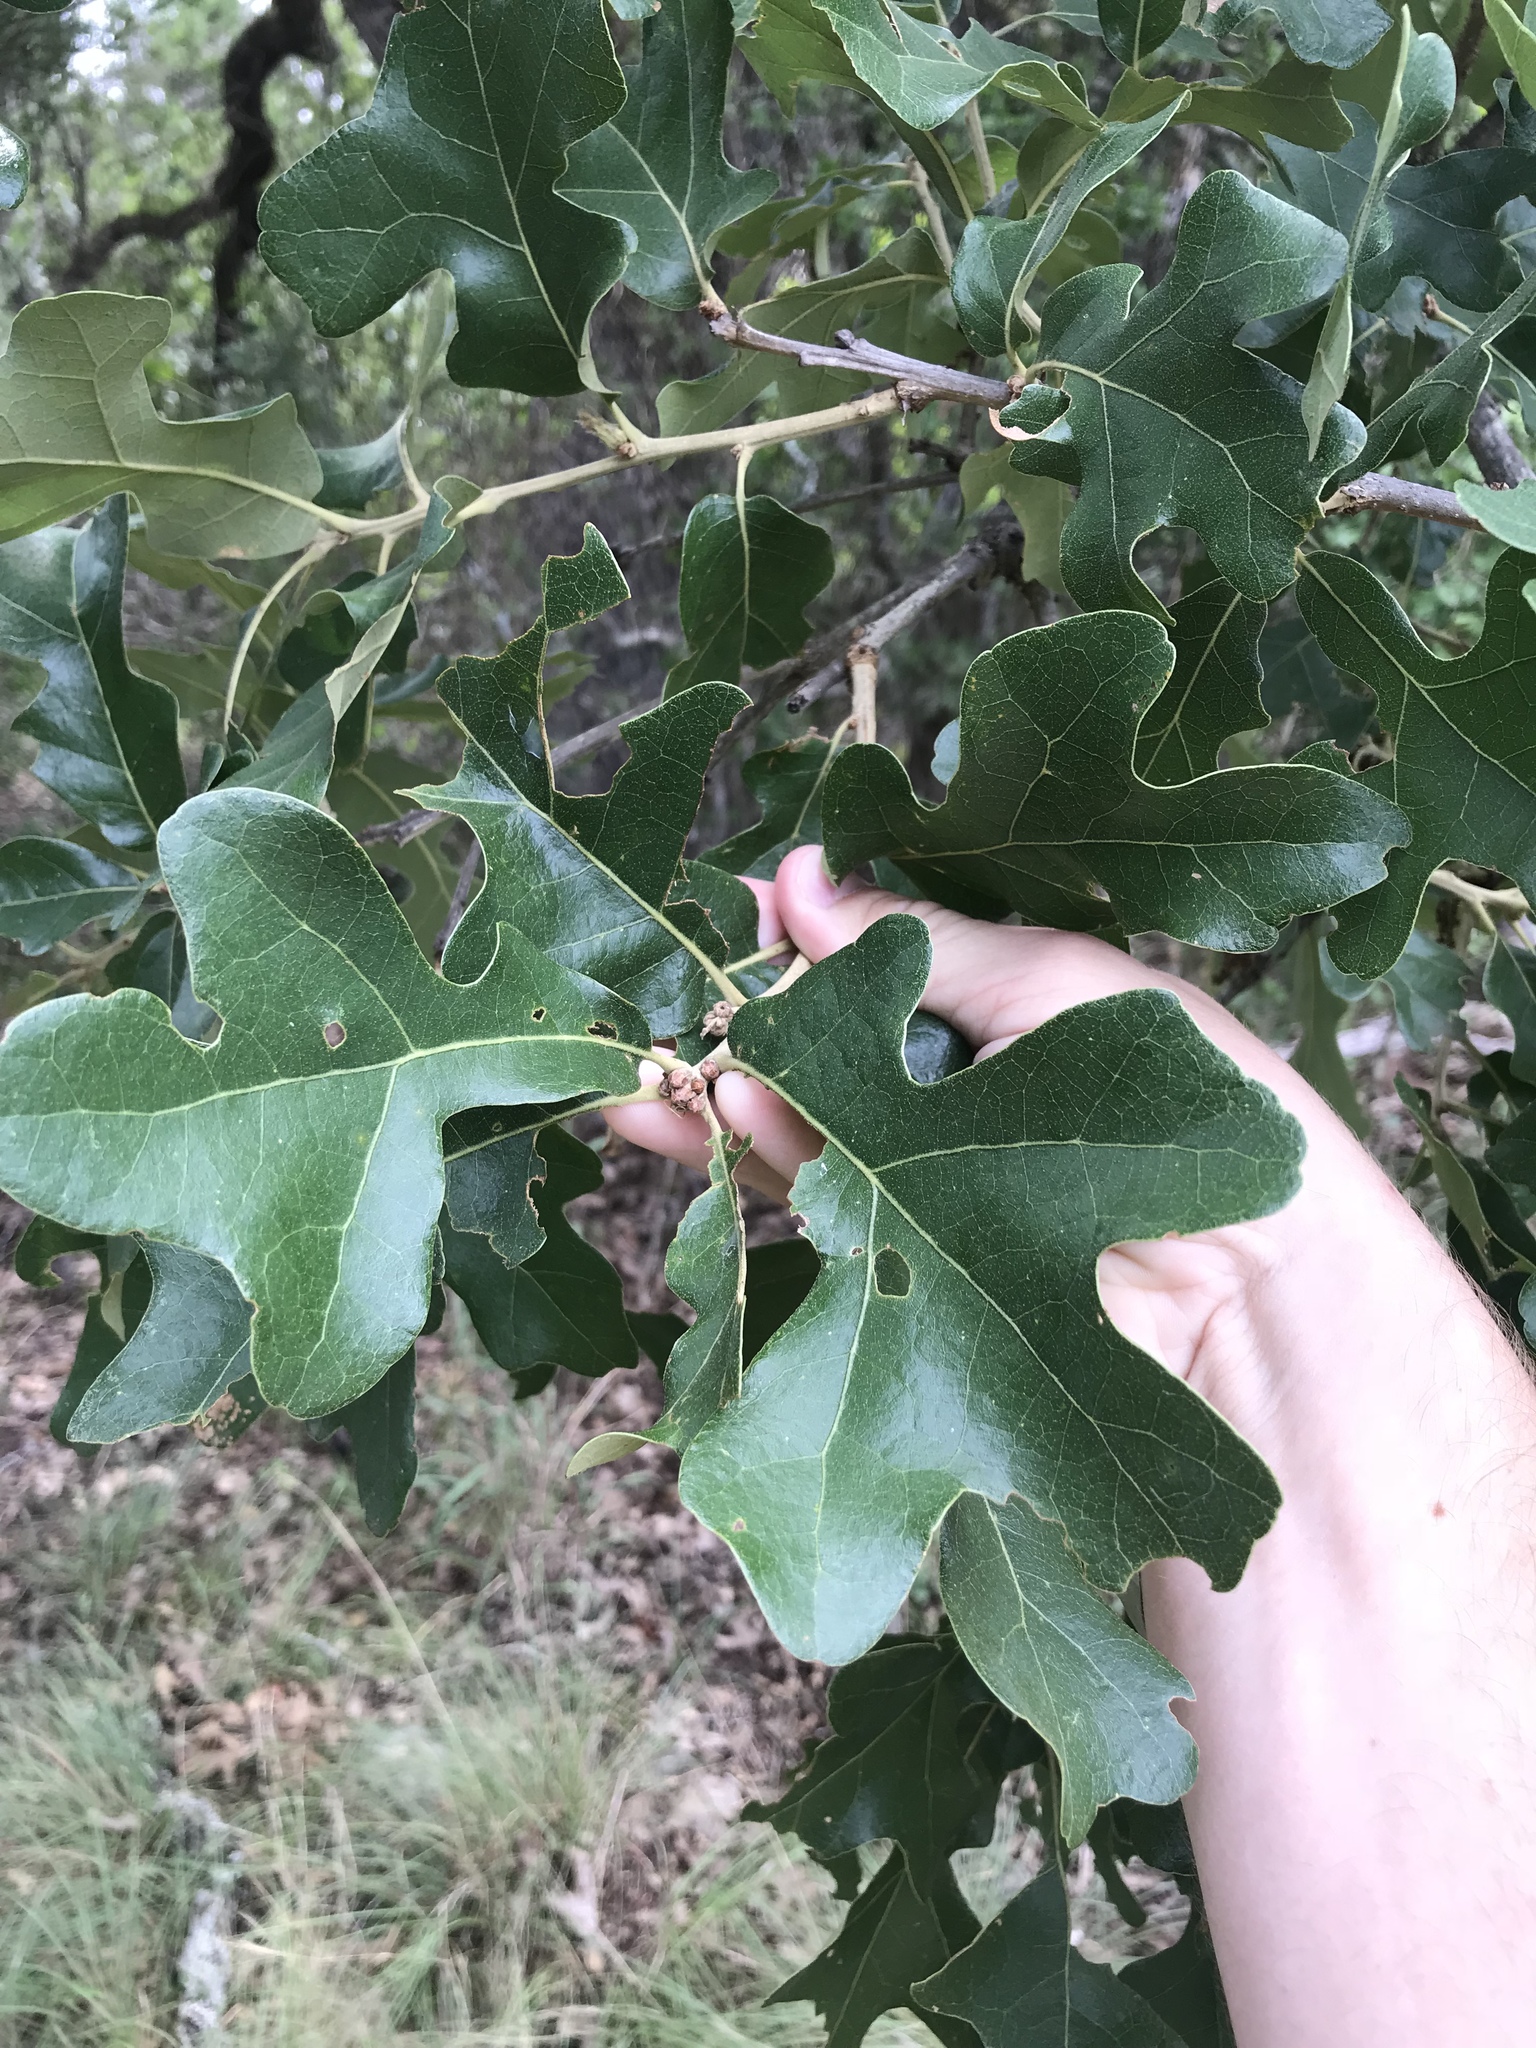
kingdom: Plantae
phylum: Tracheophyta
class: Magnoliopsida
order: Fagales
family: Fagaceae
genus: Quercus
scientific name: Quercus stellata
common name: Post oak
